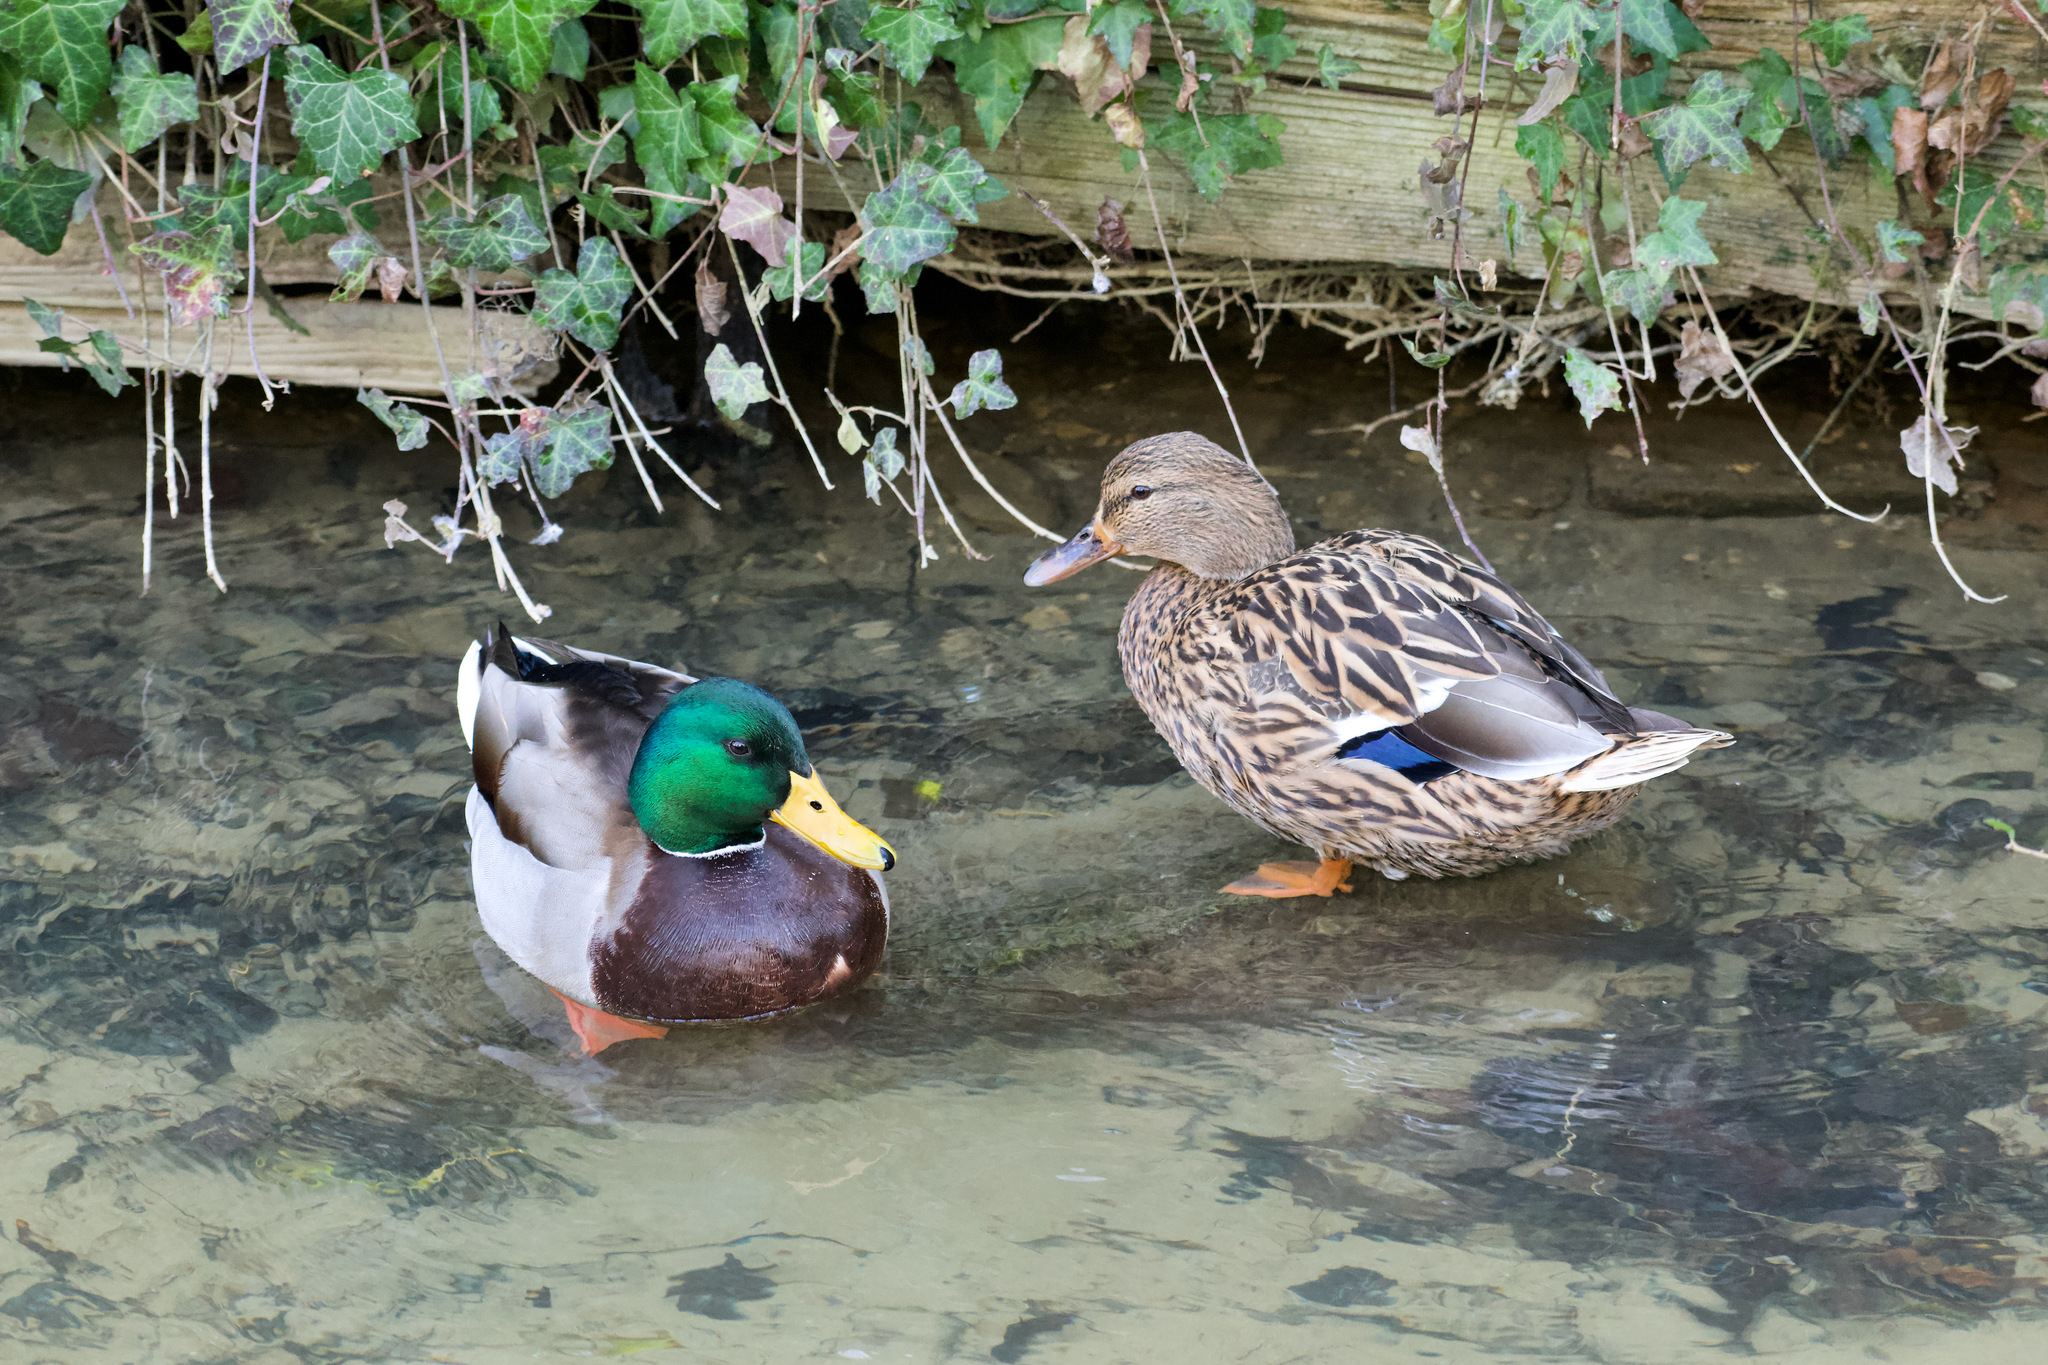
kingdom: Animalia
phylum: Chordata
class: Aves
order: Anseriformes
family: Anatidae
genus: Anas
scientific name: Anas platyrhynchos
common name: Mallard
